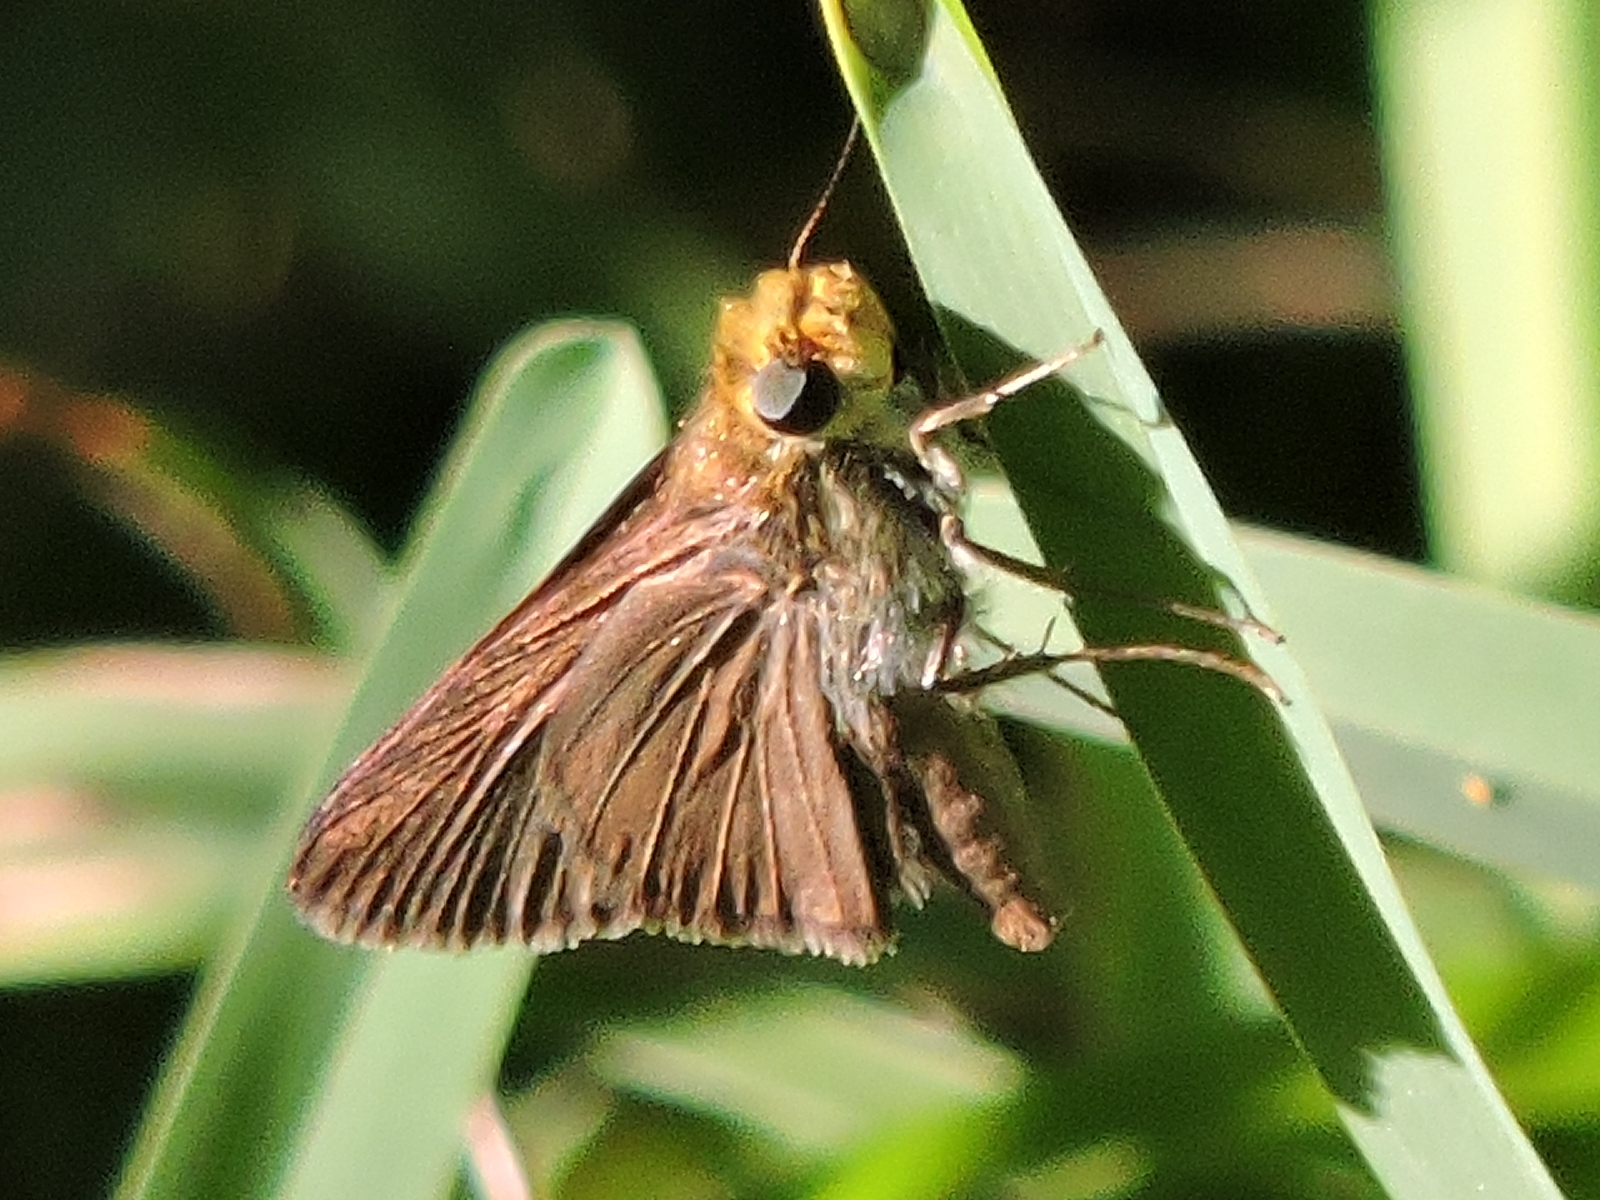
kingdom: Animalia
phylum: Arthropoda
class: Insecta
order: Lepidoptera
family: Hesperiidae
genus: Euphyes
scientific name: Euphyes vestris
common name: Dun skipper
